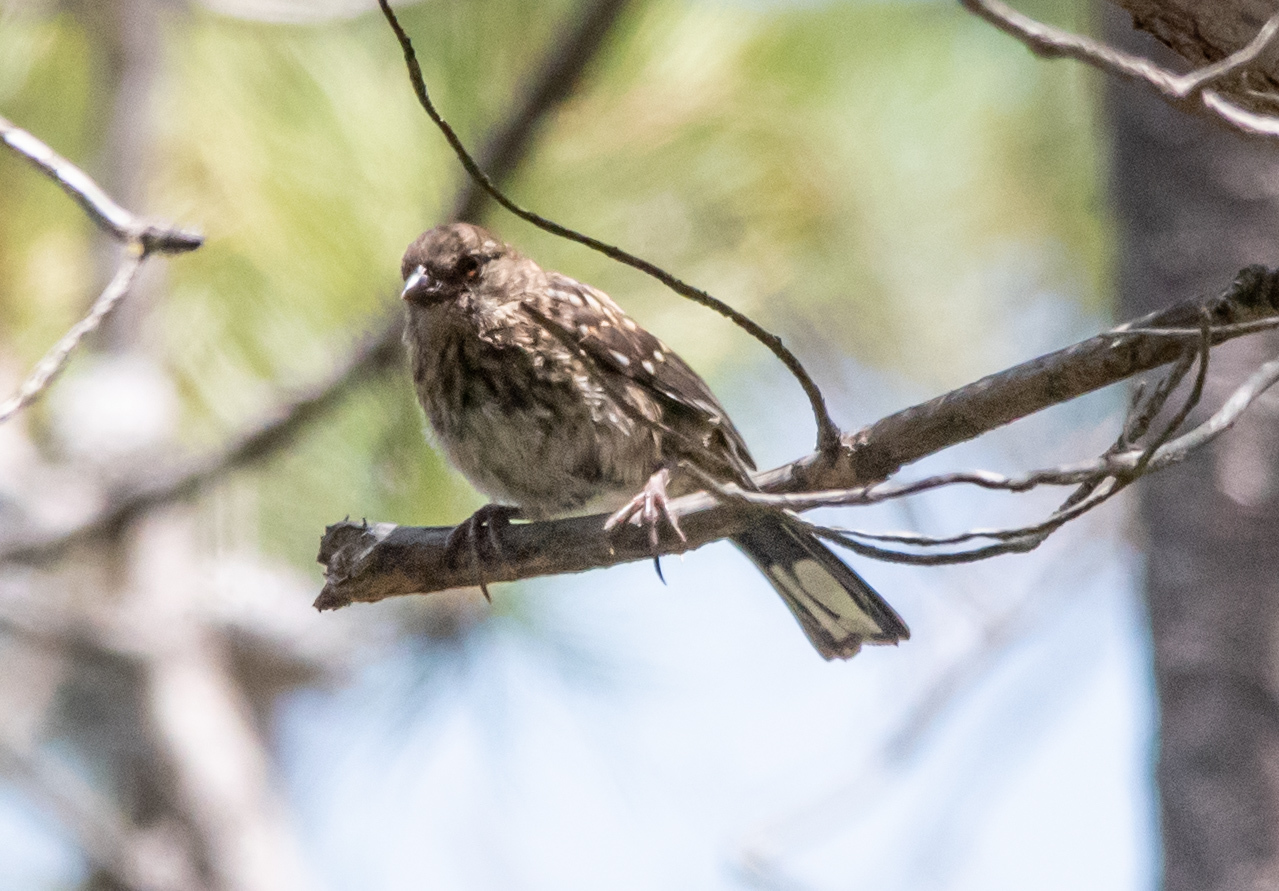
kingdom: Animalia
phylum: Chordata
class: Aves
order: Passeriformes
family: Passerellidae
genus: Melospiza
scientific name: Melospiza melodia
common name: Song sparrow
